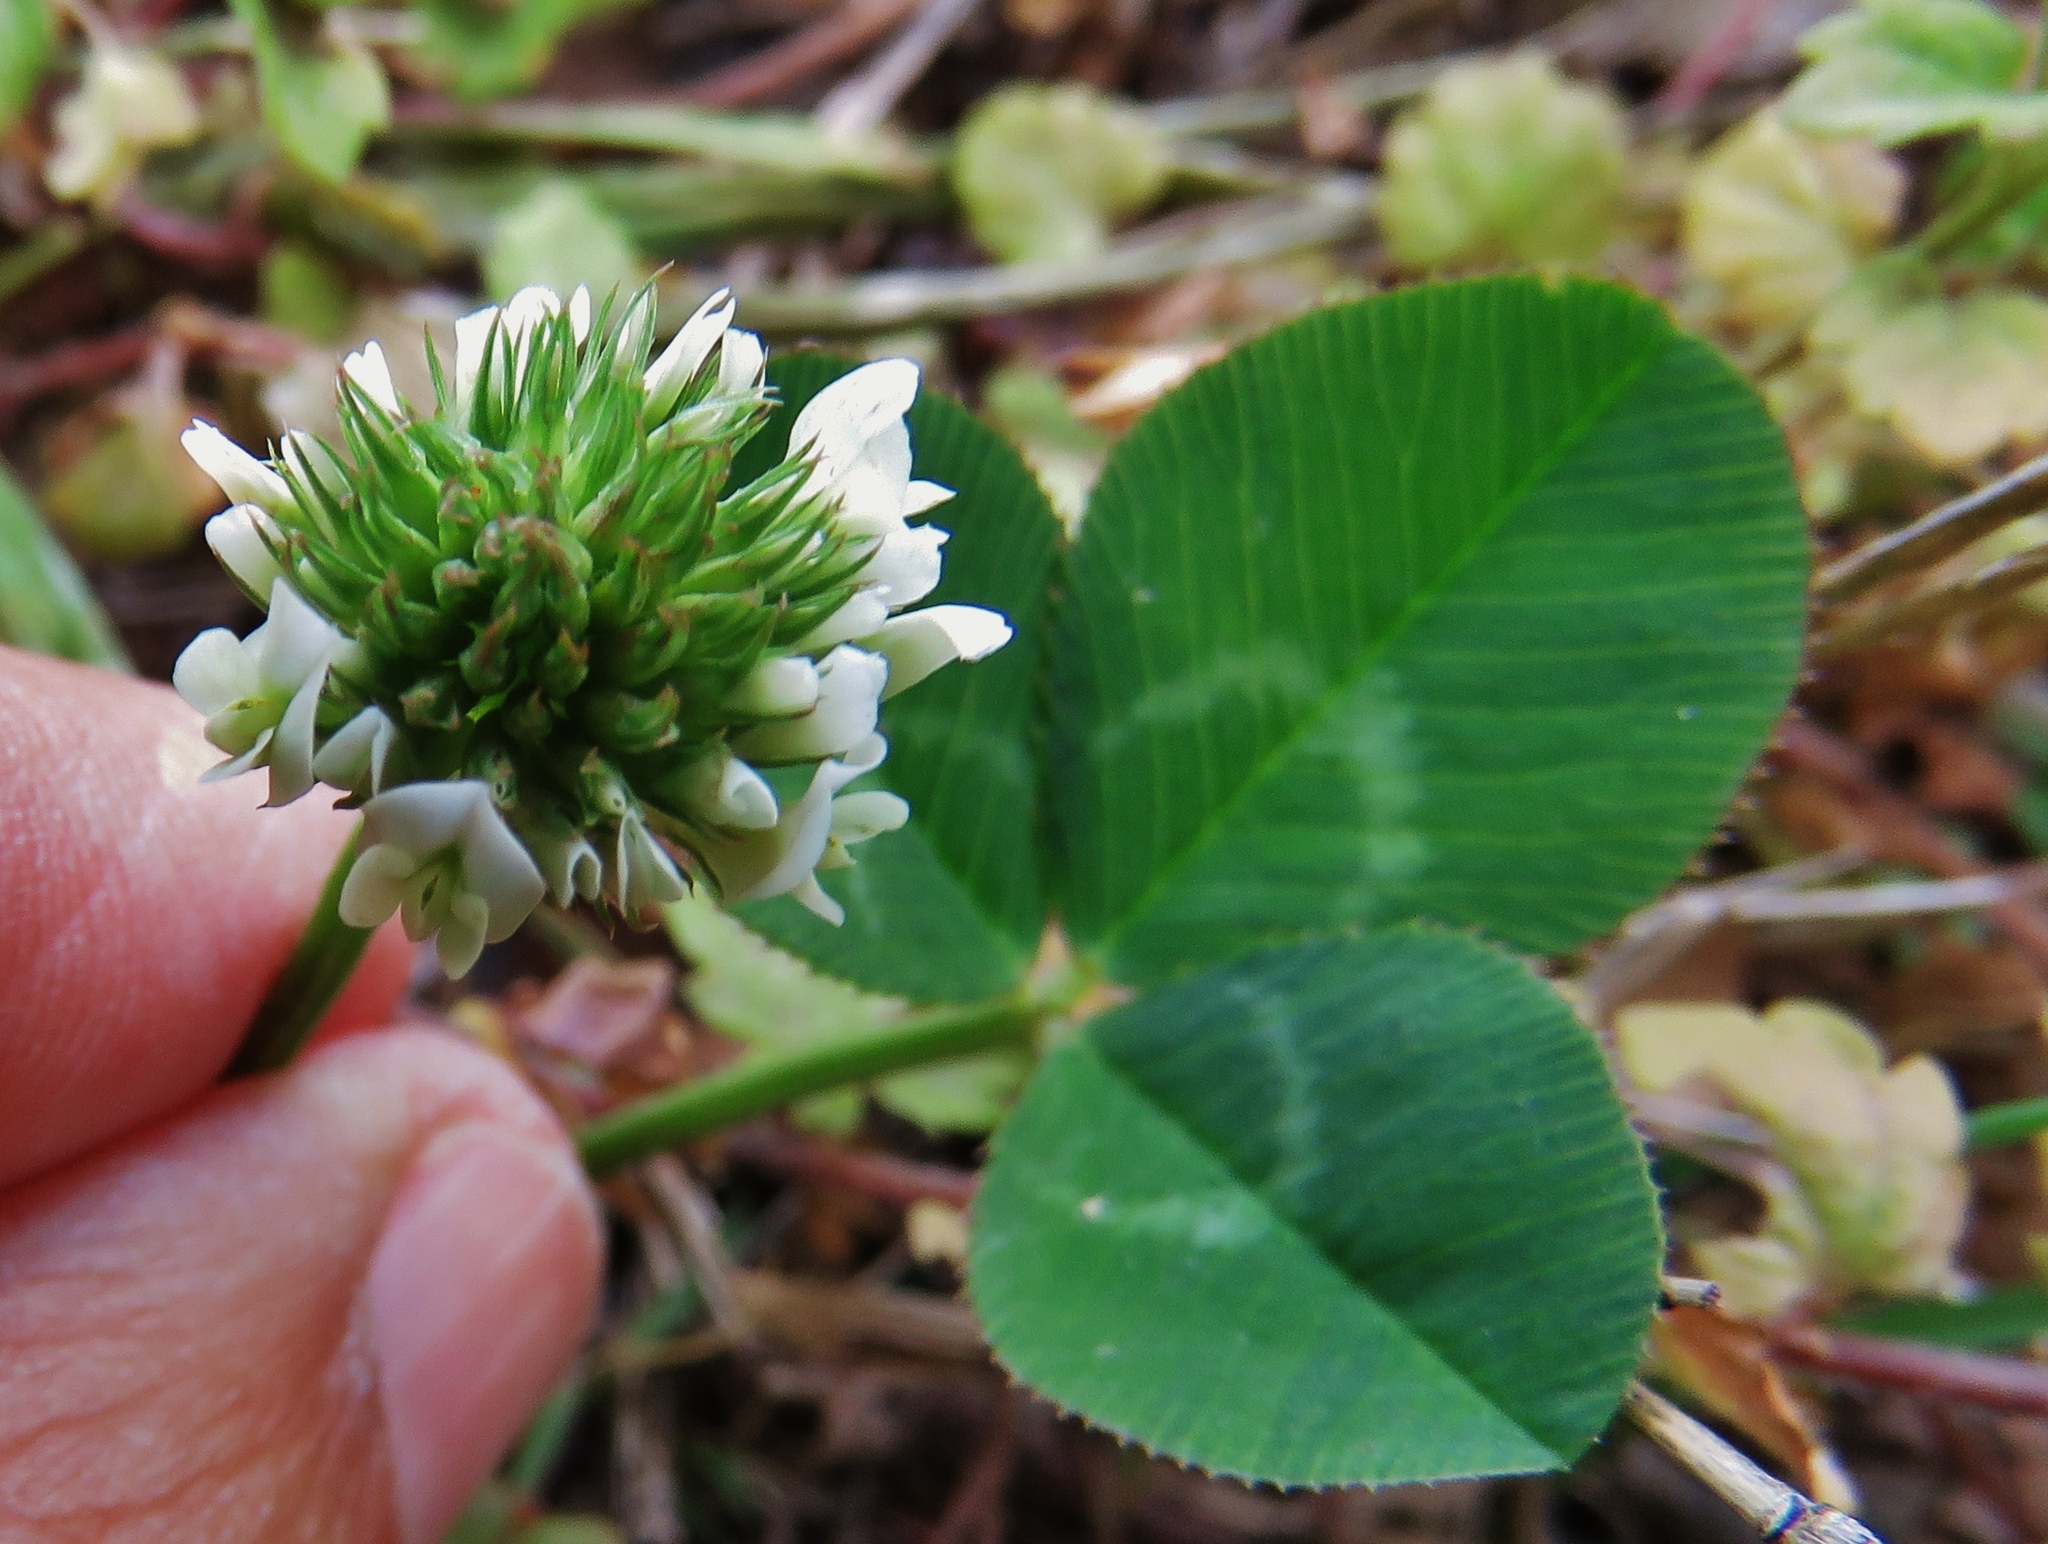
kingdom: Plantae
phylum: Tracheophyta
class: Magnoliopsida
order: Fabales
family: Fabaceae
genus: Trifolium
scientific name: Trifolium repens
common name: White clover
